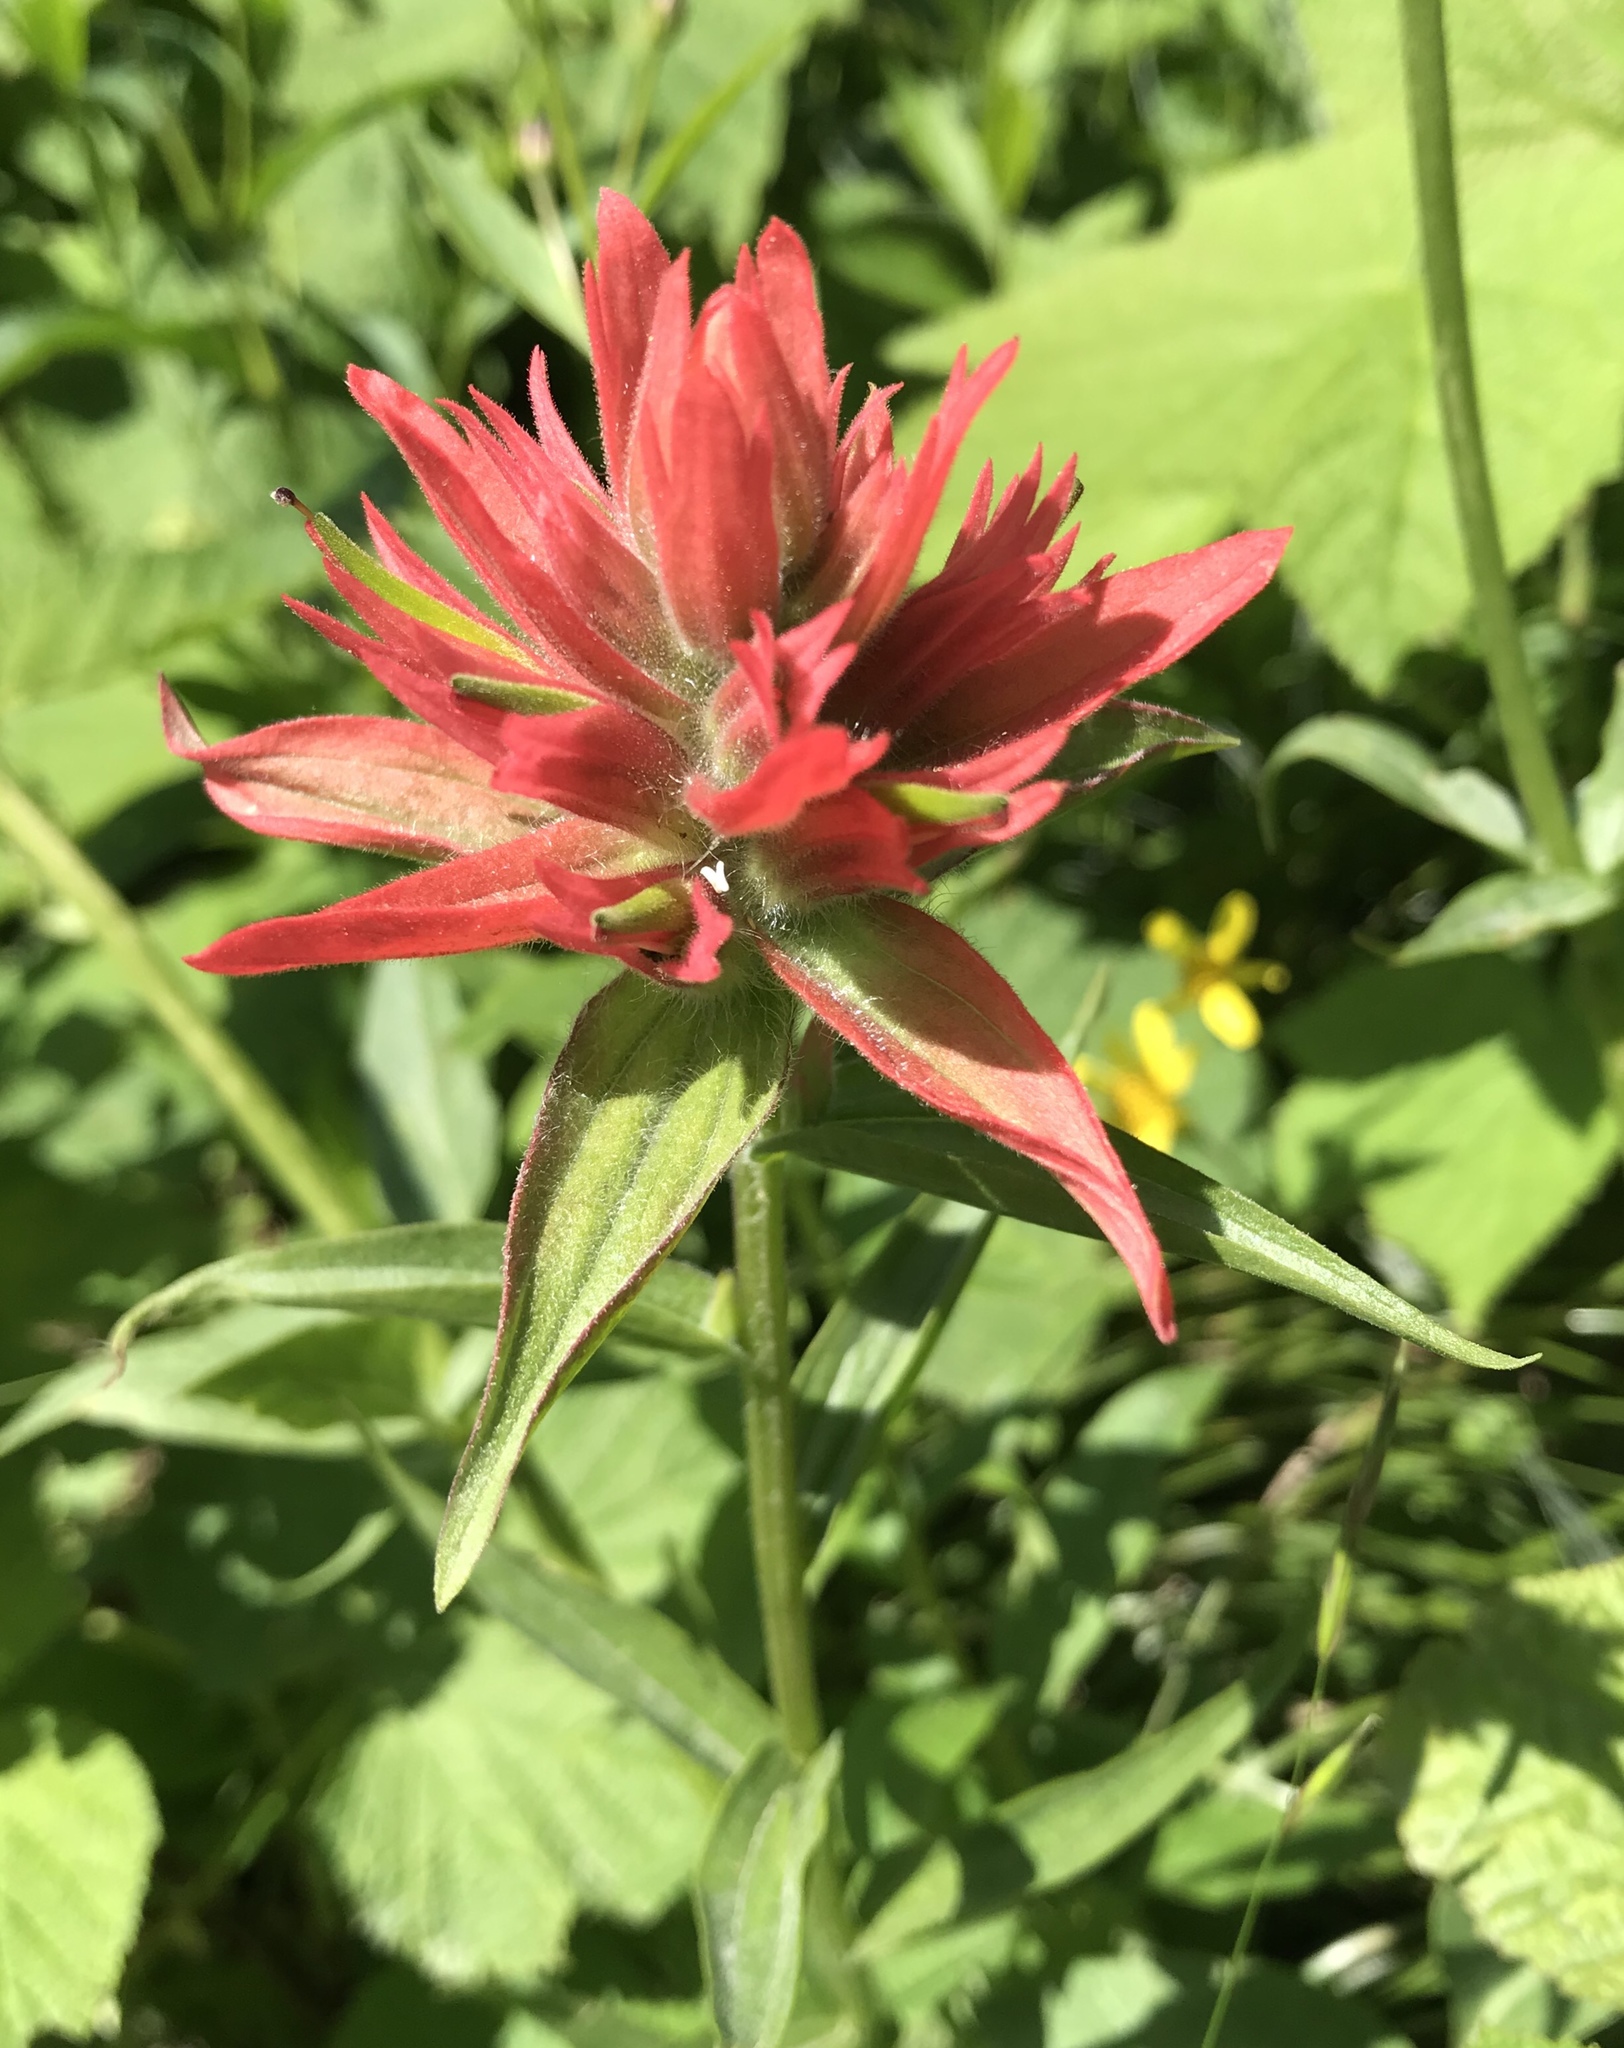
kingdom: Plantae
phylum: Tracheophyta
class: Magnoliopsida
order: Lamiales
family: Orobanchaceae
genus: Castilleja
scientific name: Castilleja miniata
